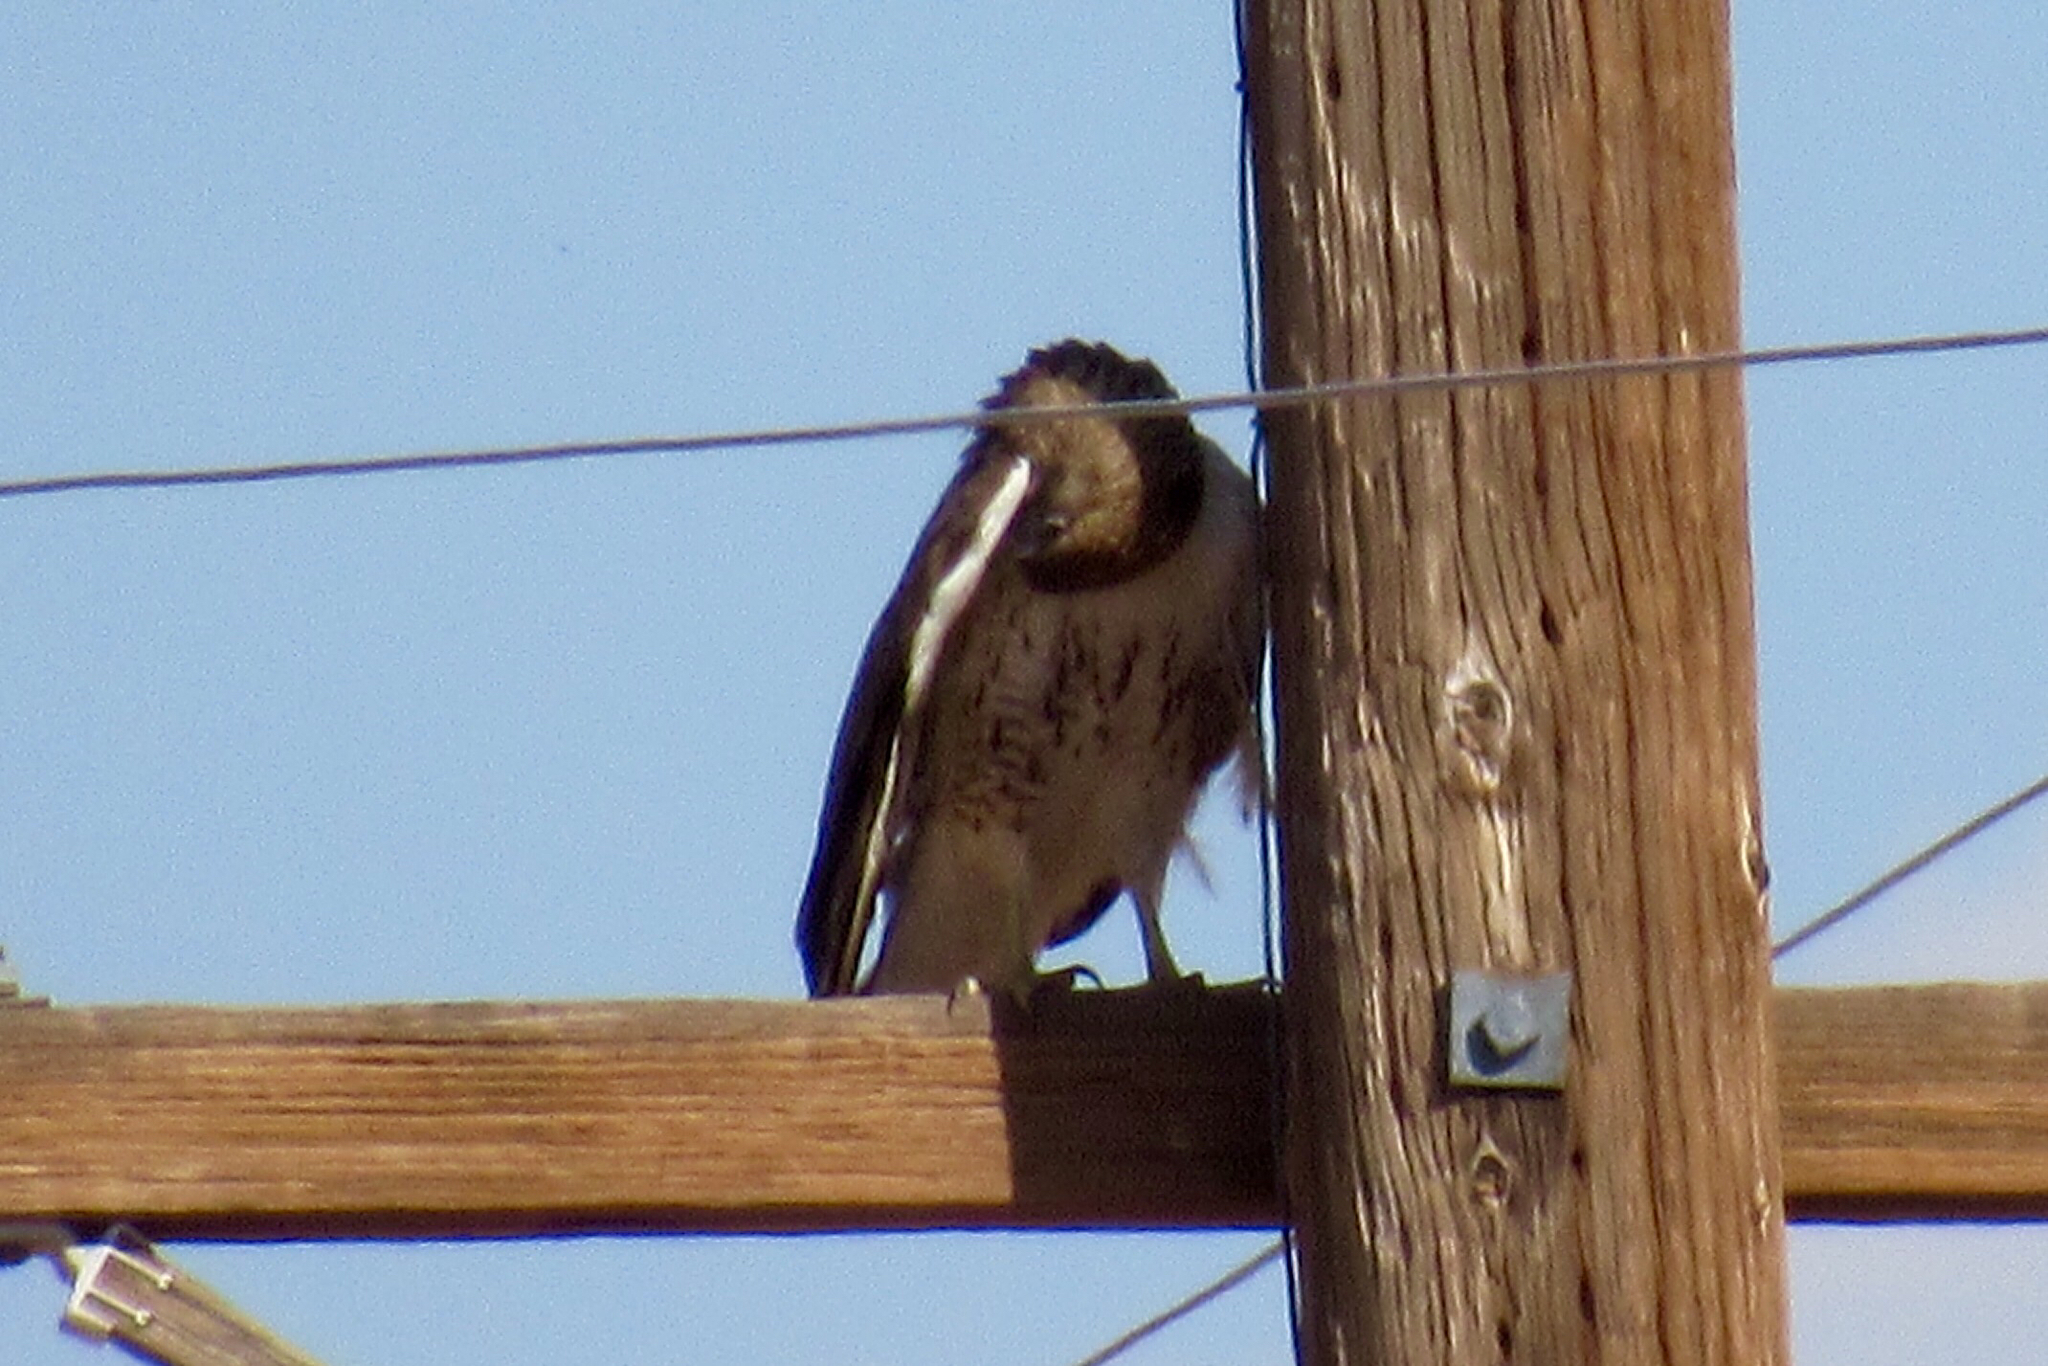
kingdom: Animalia
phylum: Chordata
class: Aves
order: Accipitriformes
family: Accipitridae
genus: Buteo
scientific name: Buteo jamaicensis
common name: Red-tailed hawk
